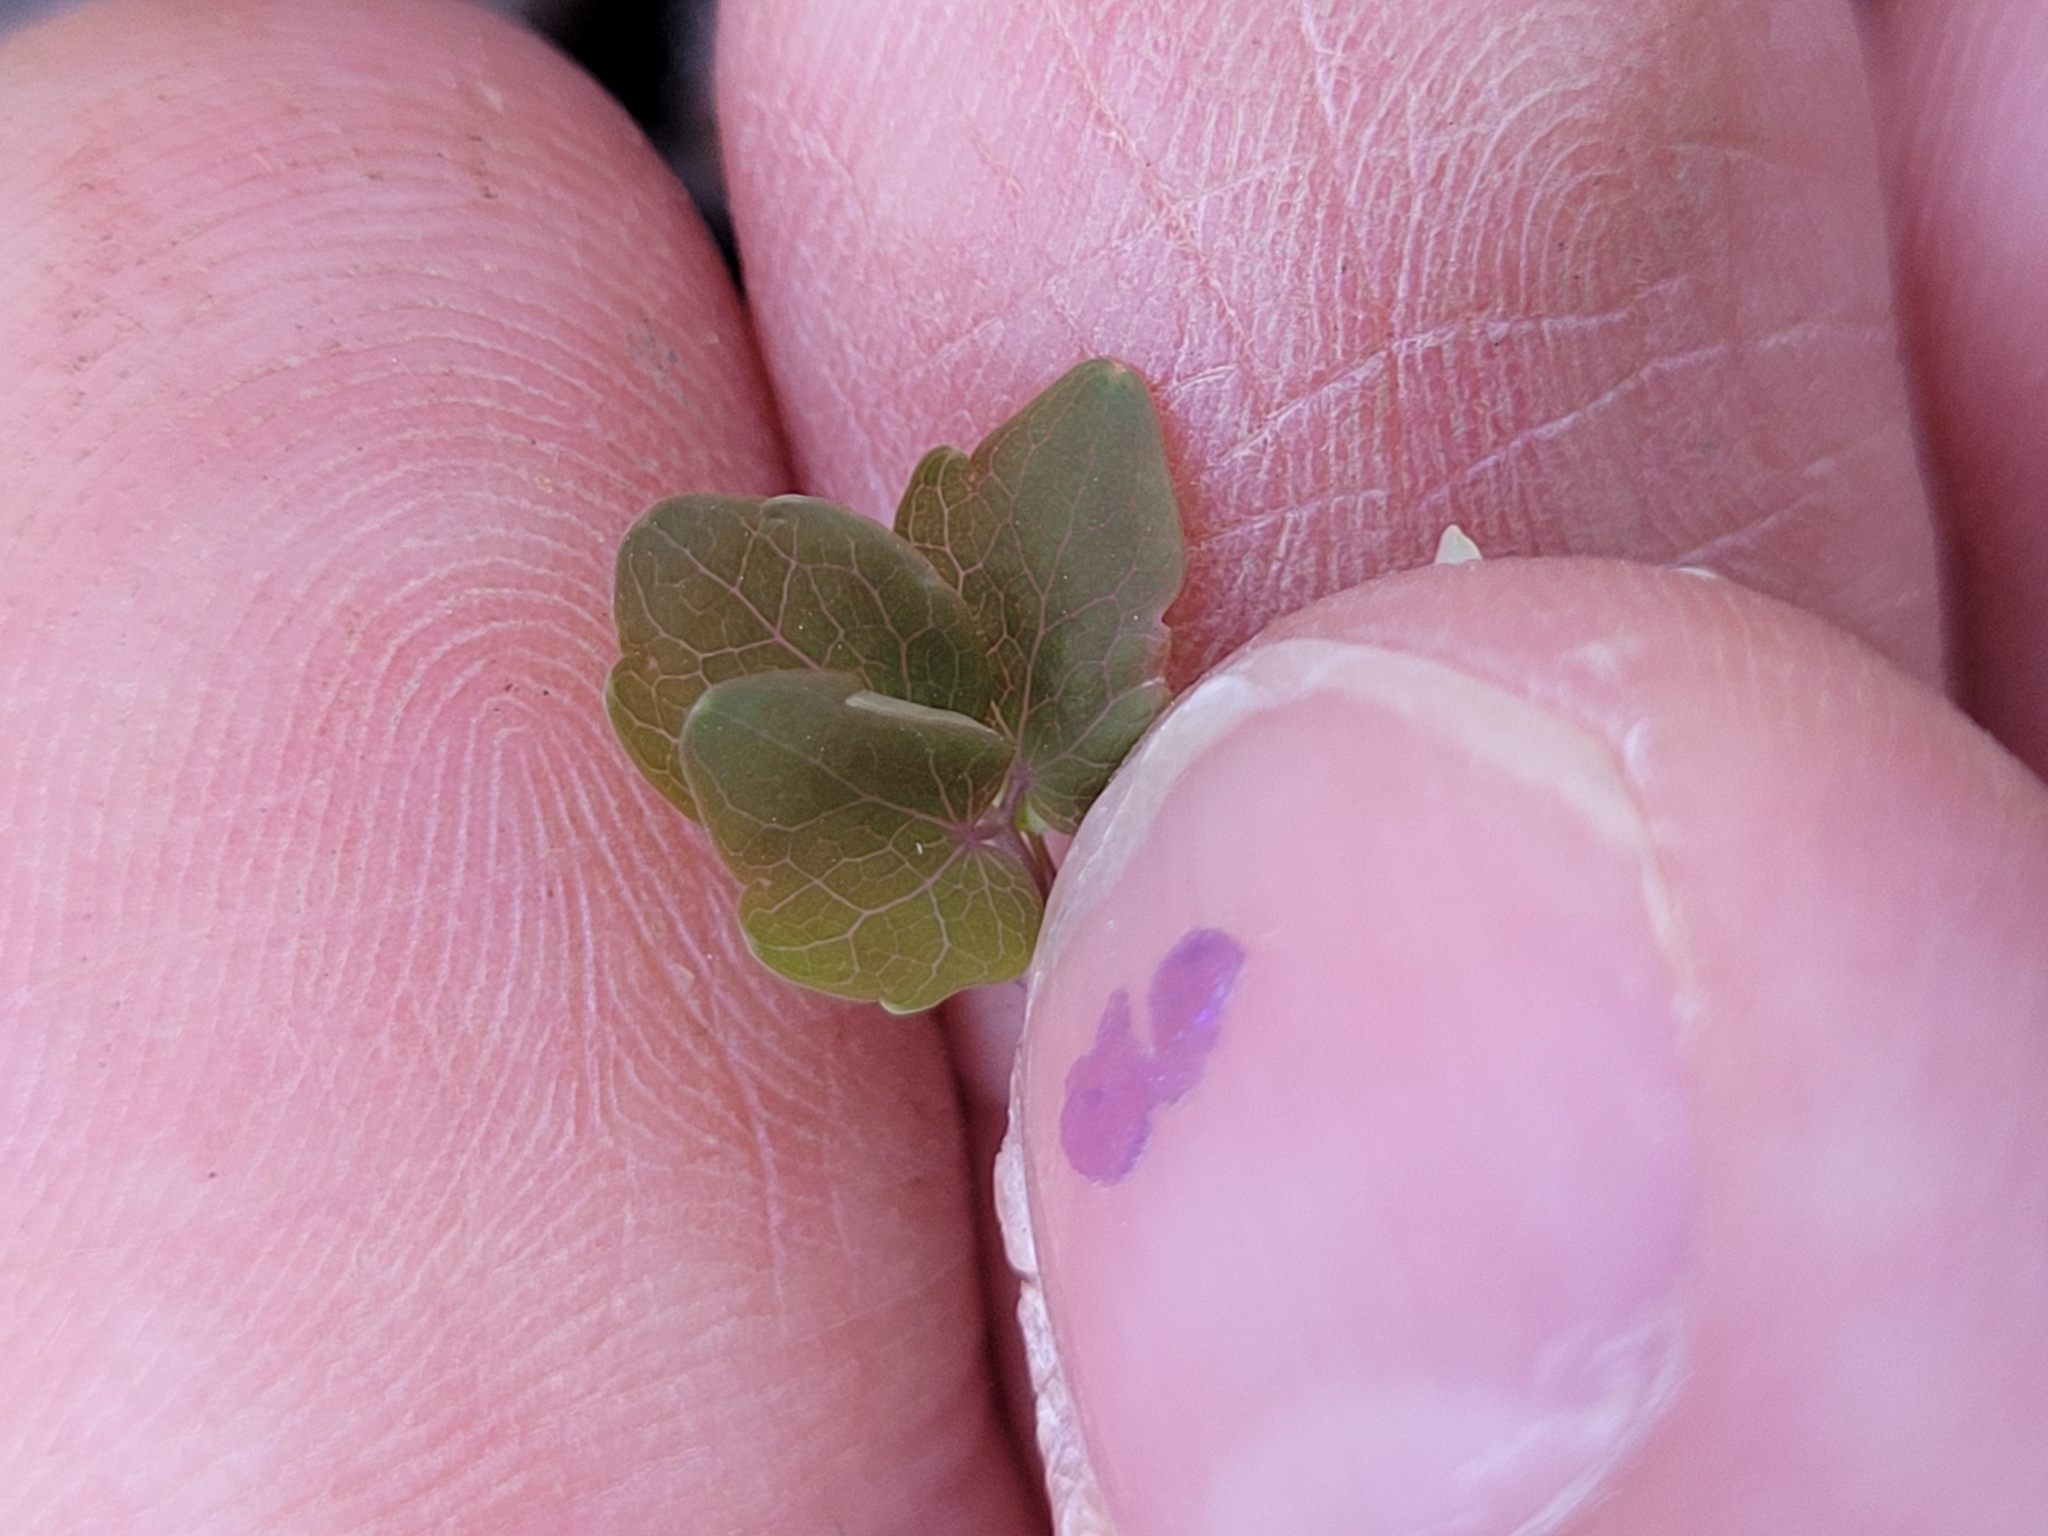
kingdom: Plantae
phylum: Tracheophyta
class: Magnoliopsida
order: Ranunculales
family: Ranunculaceae
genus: Thalictrum
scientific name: Thalictrum thalictroides
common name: Rue-anemone
